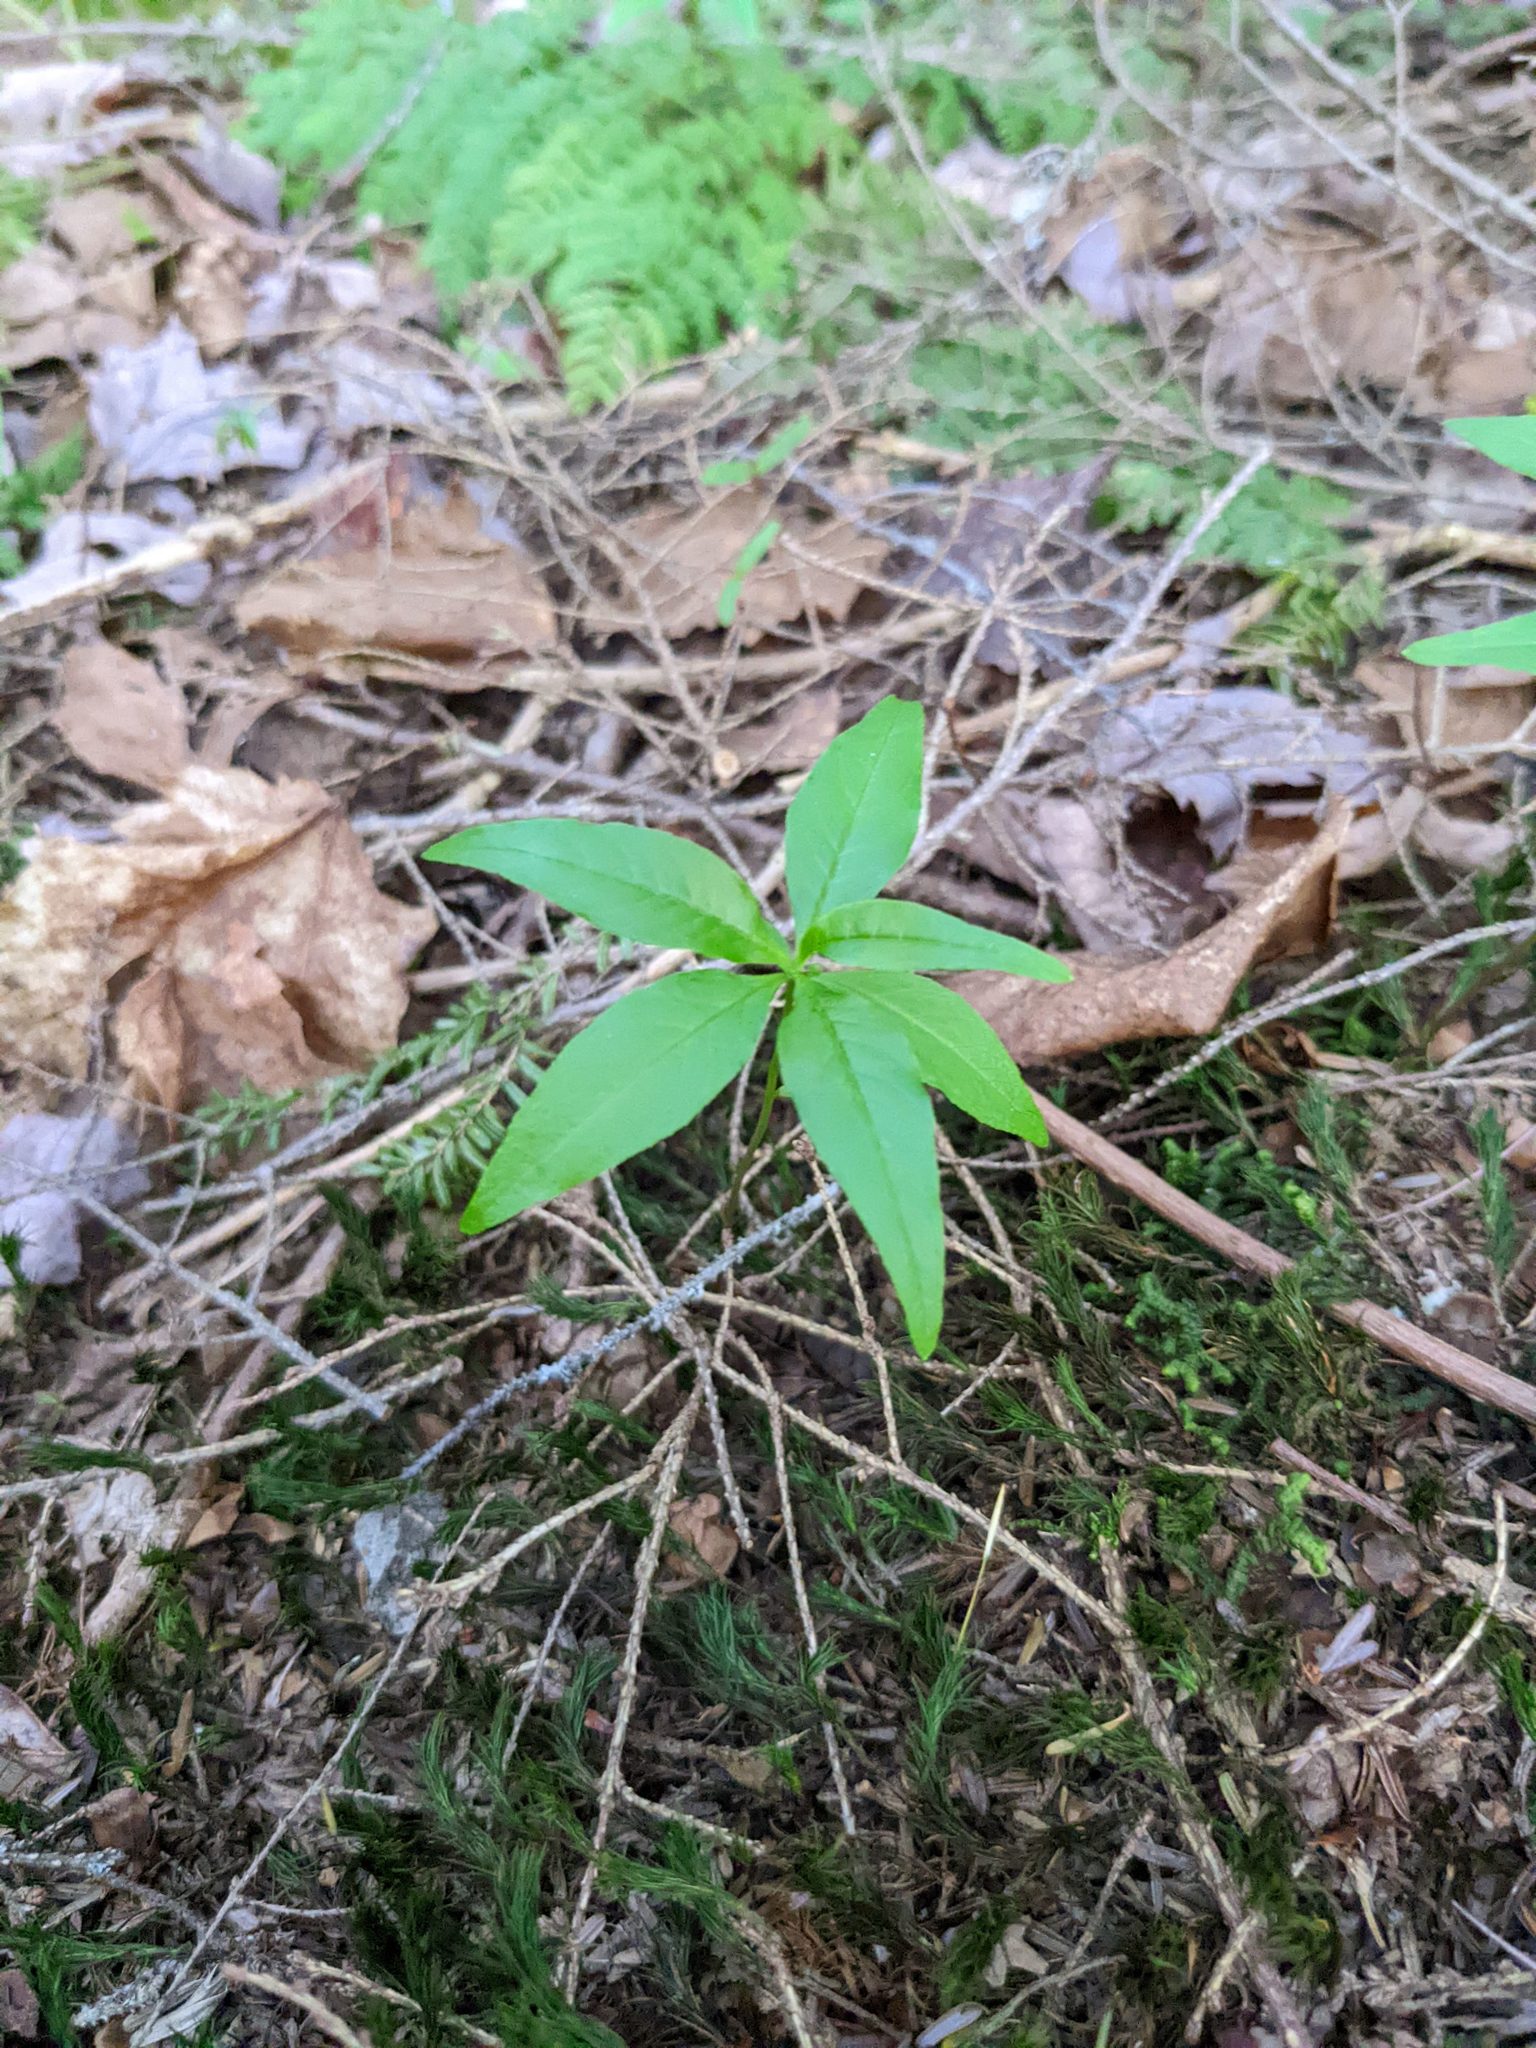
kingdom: Plantae
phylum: Tracheophyta
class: Magnoliopsida
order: Ericales
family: Primulaceae
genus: Lysimachia
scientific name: Lysimachia borealis
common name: American starflower
